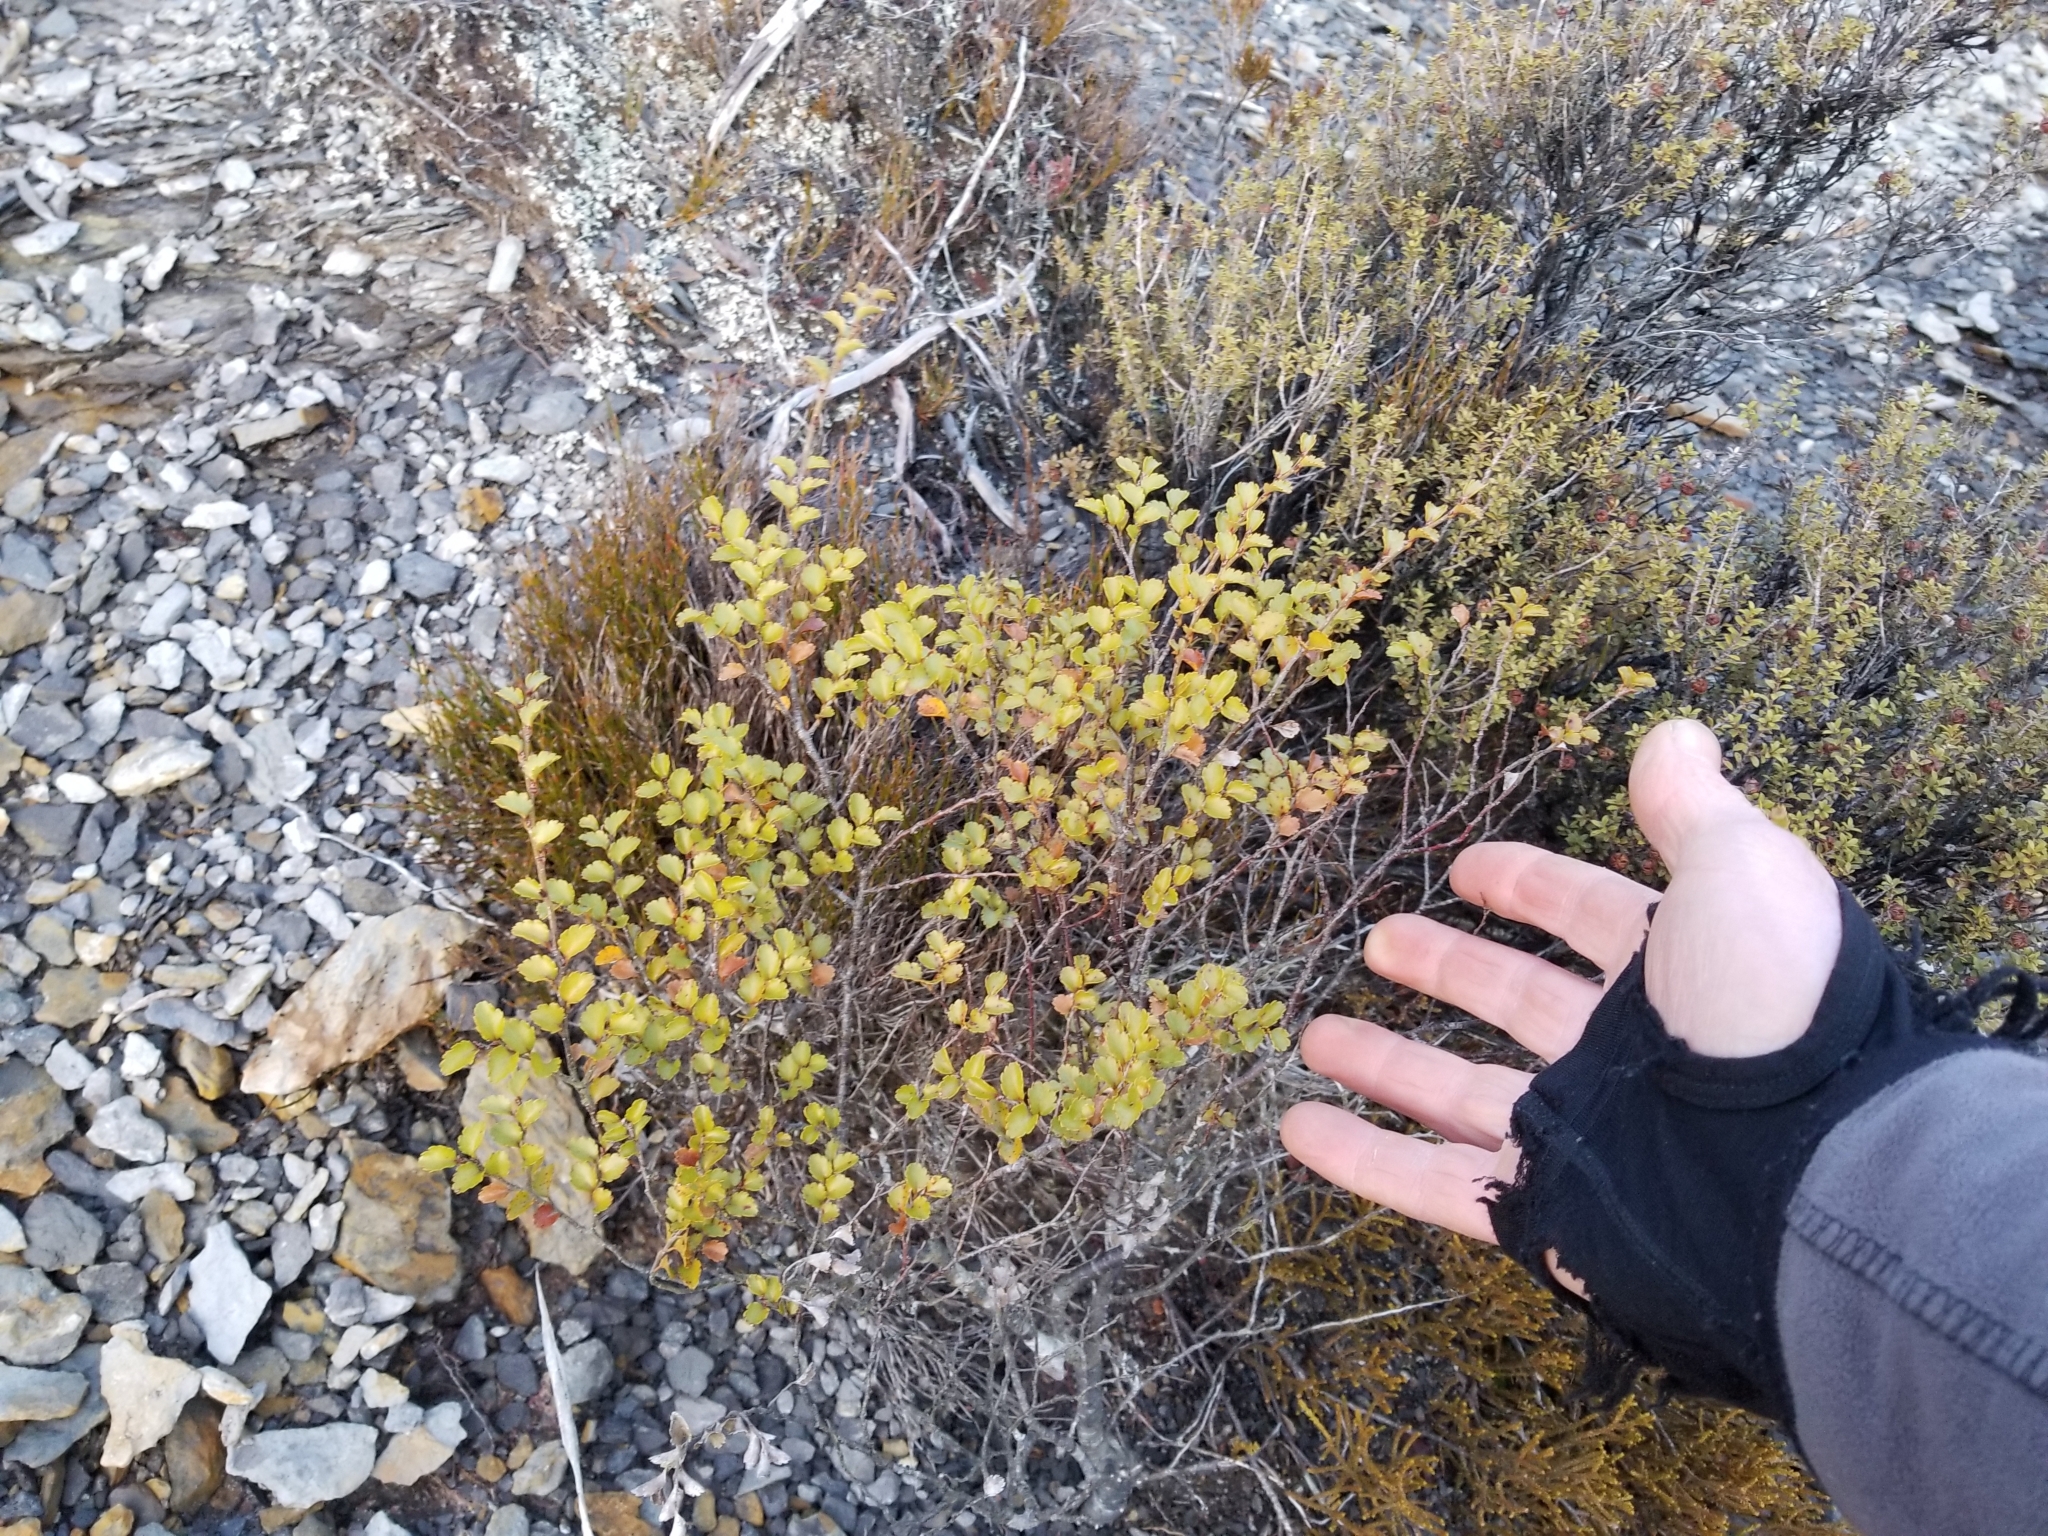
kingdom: Plantae
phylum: Tracheophyta
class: Magnoliopsida
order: Fagales
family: Nothofagaceae
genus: Nothofagus
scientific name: Nothofagus menziesii
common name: Silver beech
